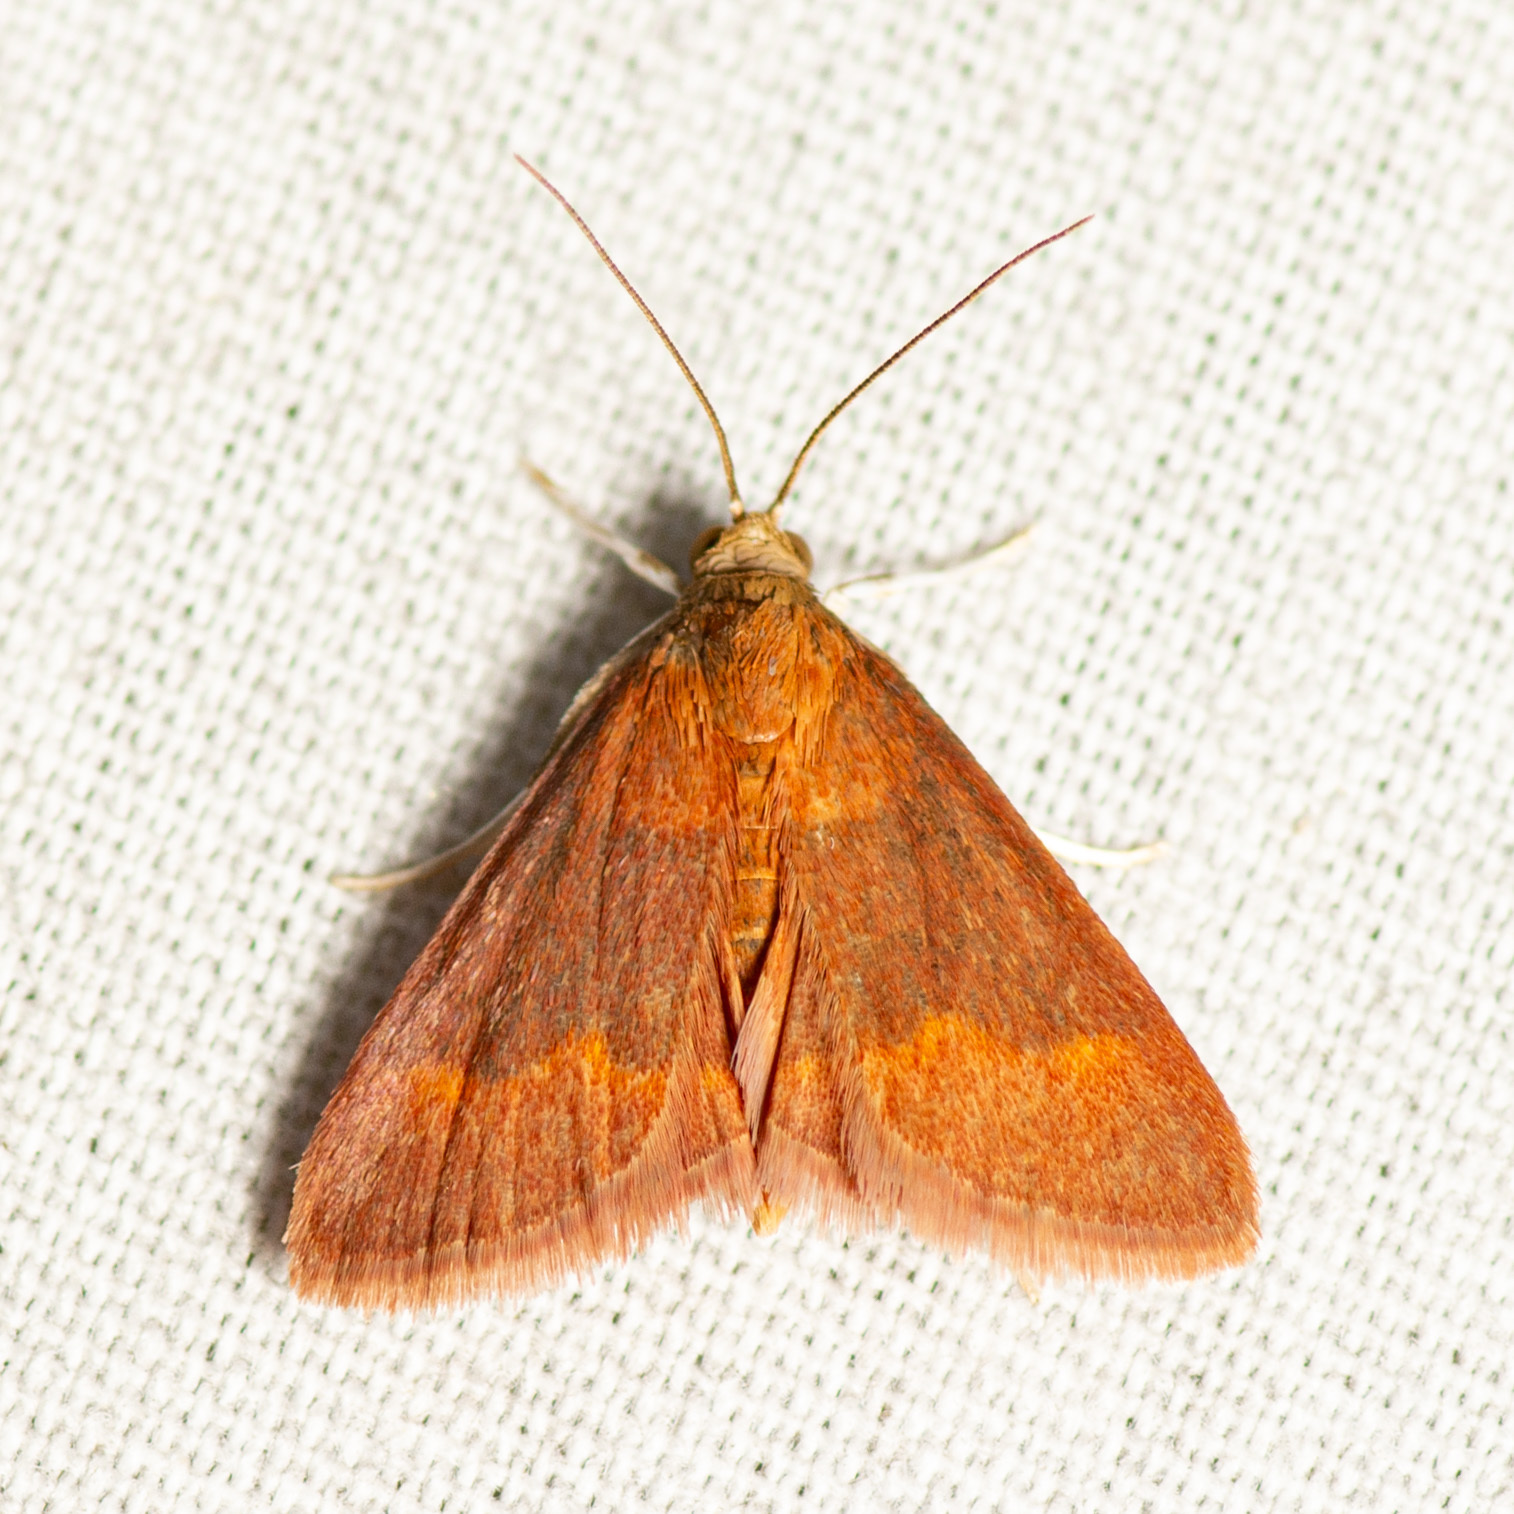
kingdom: Animalia
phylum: Arthropoda
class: Insecta
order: Lepidoptera
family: Crambidae
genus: Pyrausta
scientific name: Pyrausta pseuderosnealis
